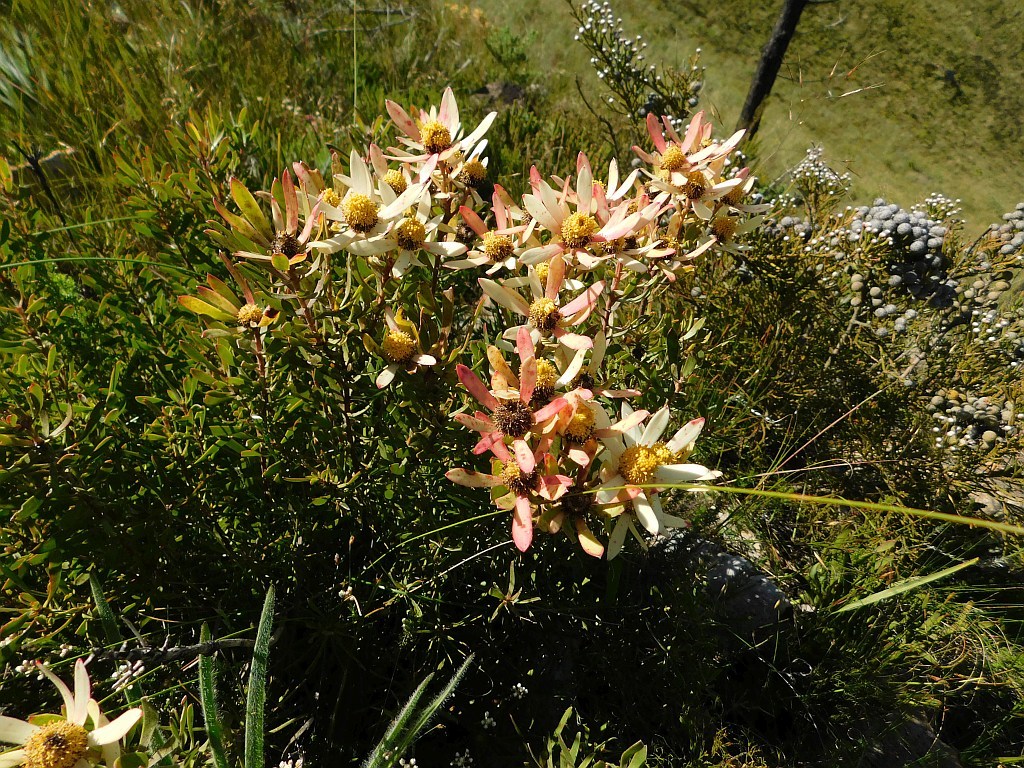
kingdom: Plantae
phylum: Tracheophyta
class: Magnoliopsida
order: Proteales
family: Proteaceae
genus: Leucadendron
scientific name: Leucadendron spissifolium
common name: Spear-leaf conebush
